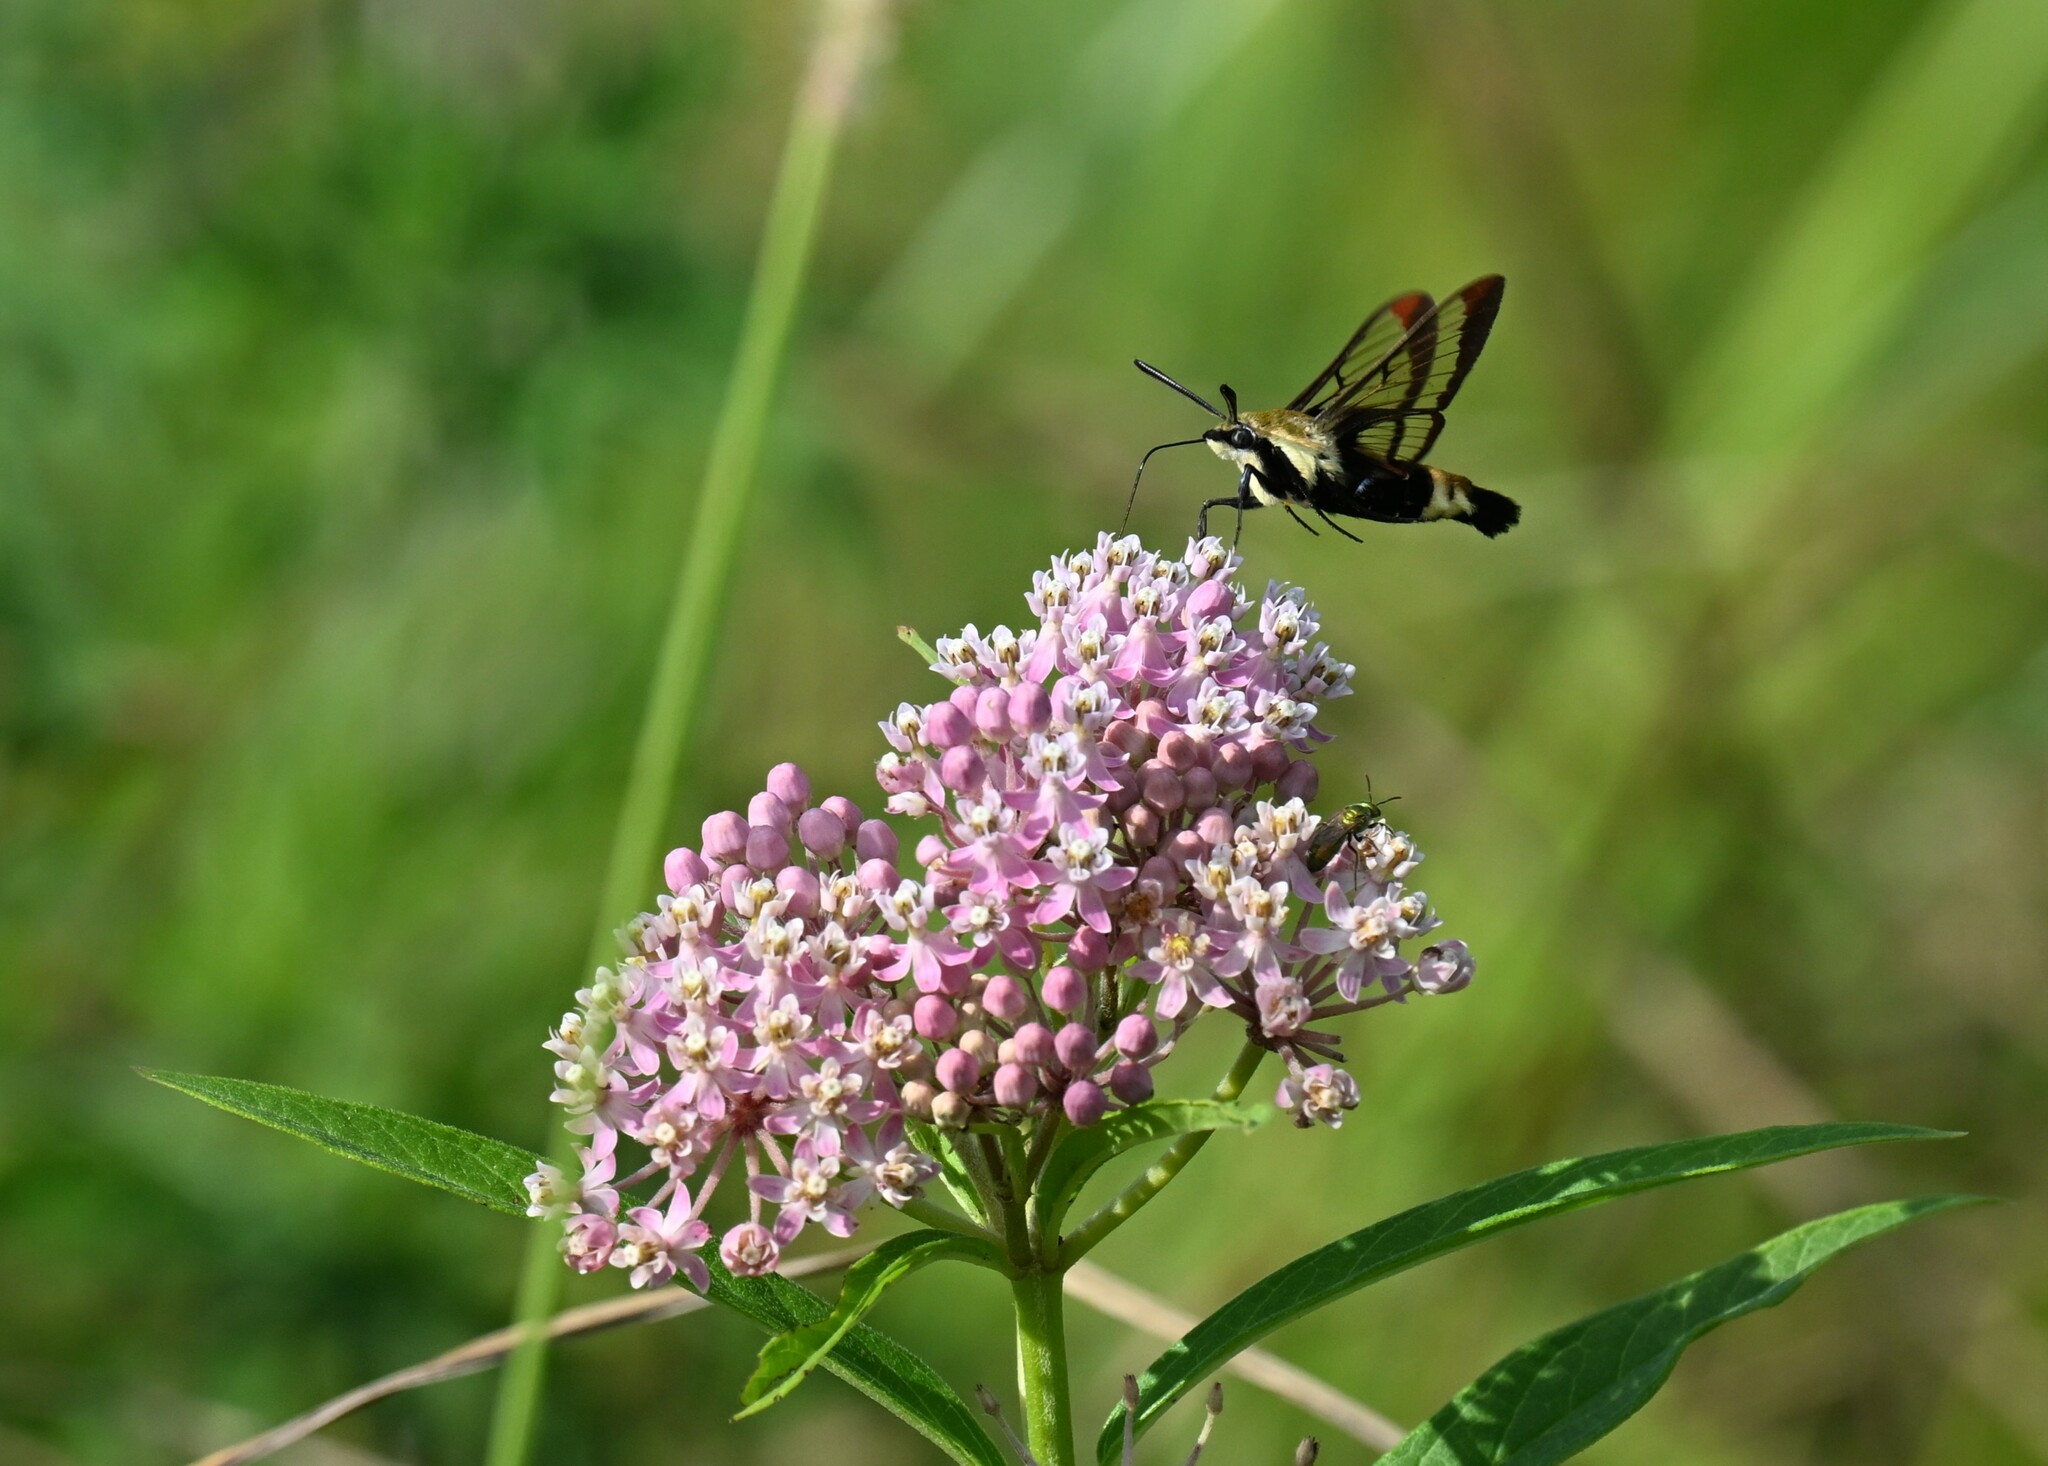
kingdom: Animalia
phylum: Arthropoda
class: Insecta
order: Lepidoptera
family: Sphingidae
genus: Hemaris
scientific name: Hemaris diffinis
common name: Bumblebee moth
